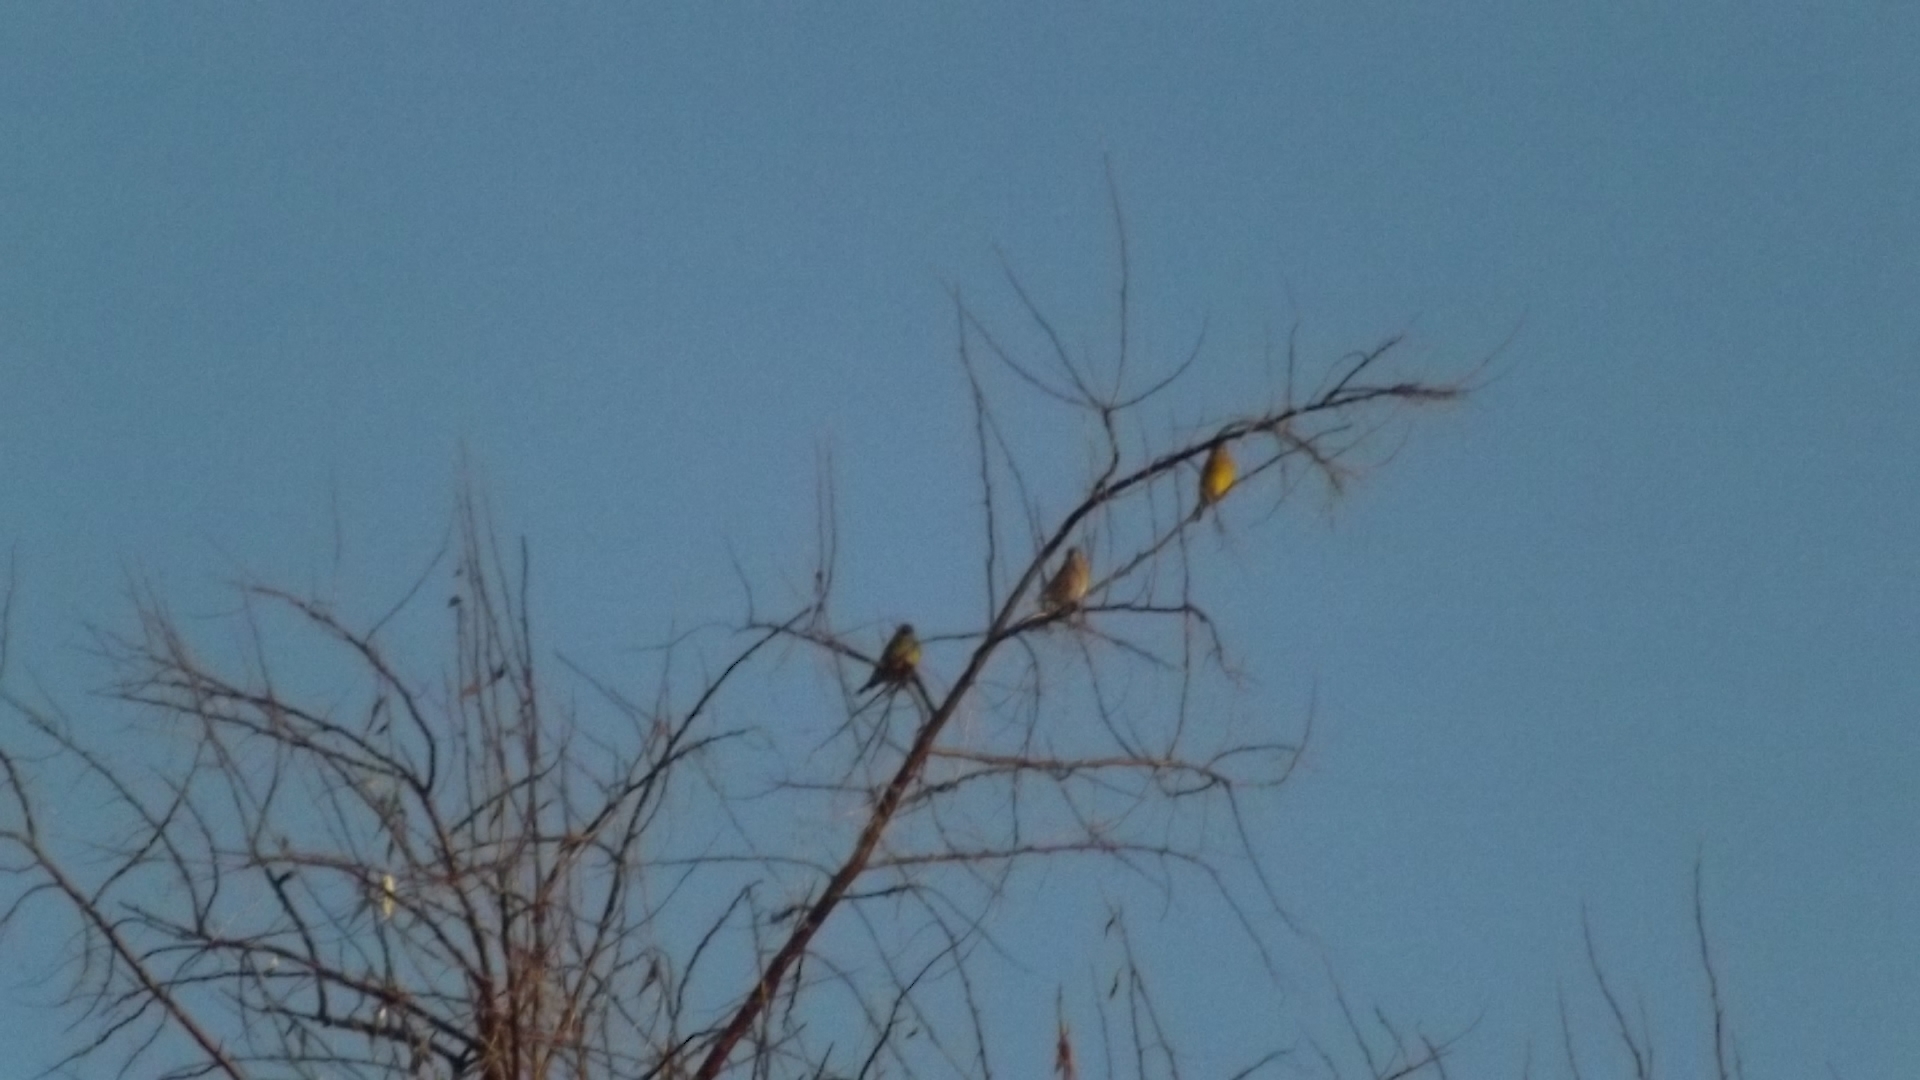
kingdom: Plantae
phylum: Tracheophyta
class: Liliopsida
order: Poales
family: Poaceae
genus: Chloris
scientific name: Chloris chloris
